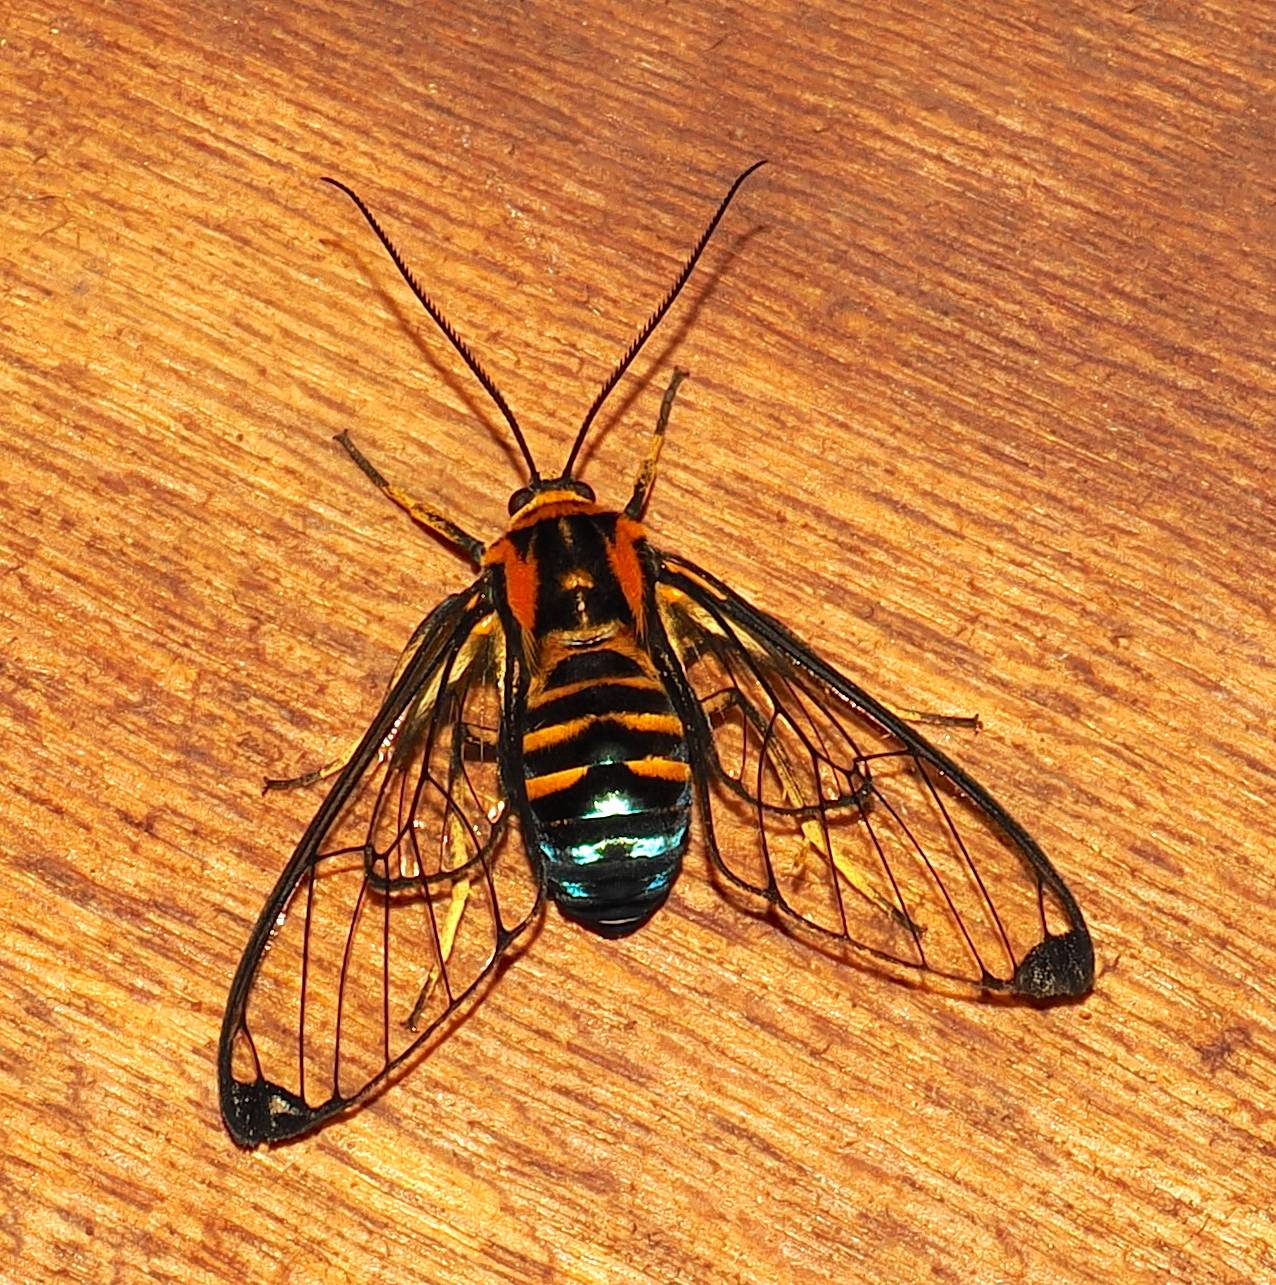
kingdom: Animalia
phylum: Arthropoda
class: Insecta
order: Lepidoptera
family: Erebidae
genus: Gymnelia
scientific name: Gymnelia carabayana
